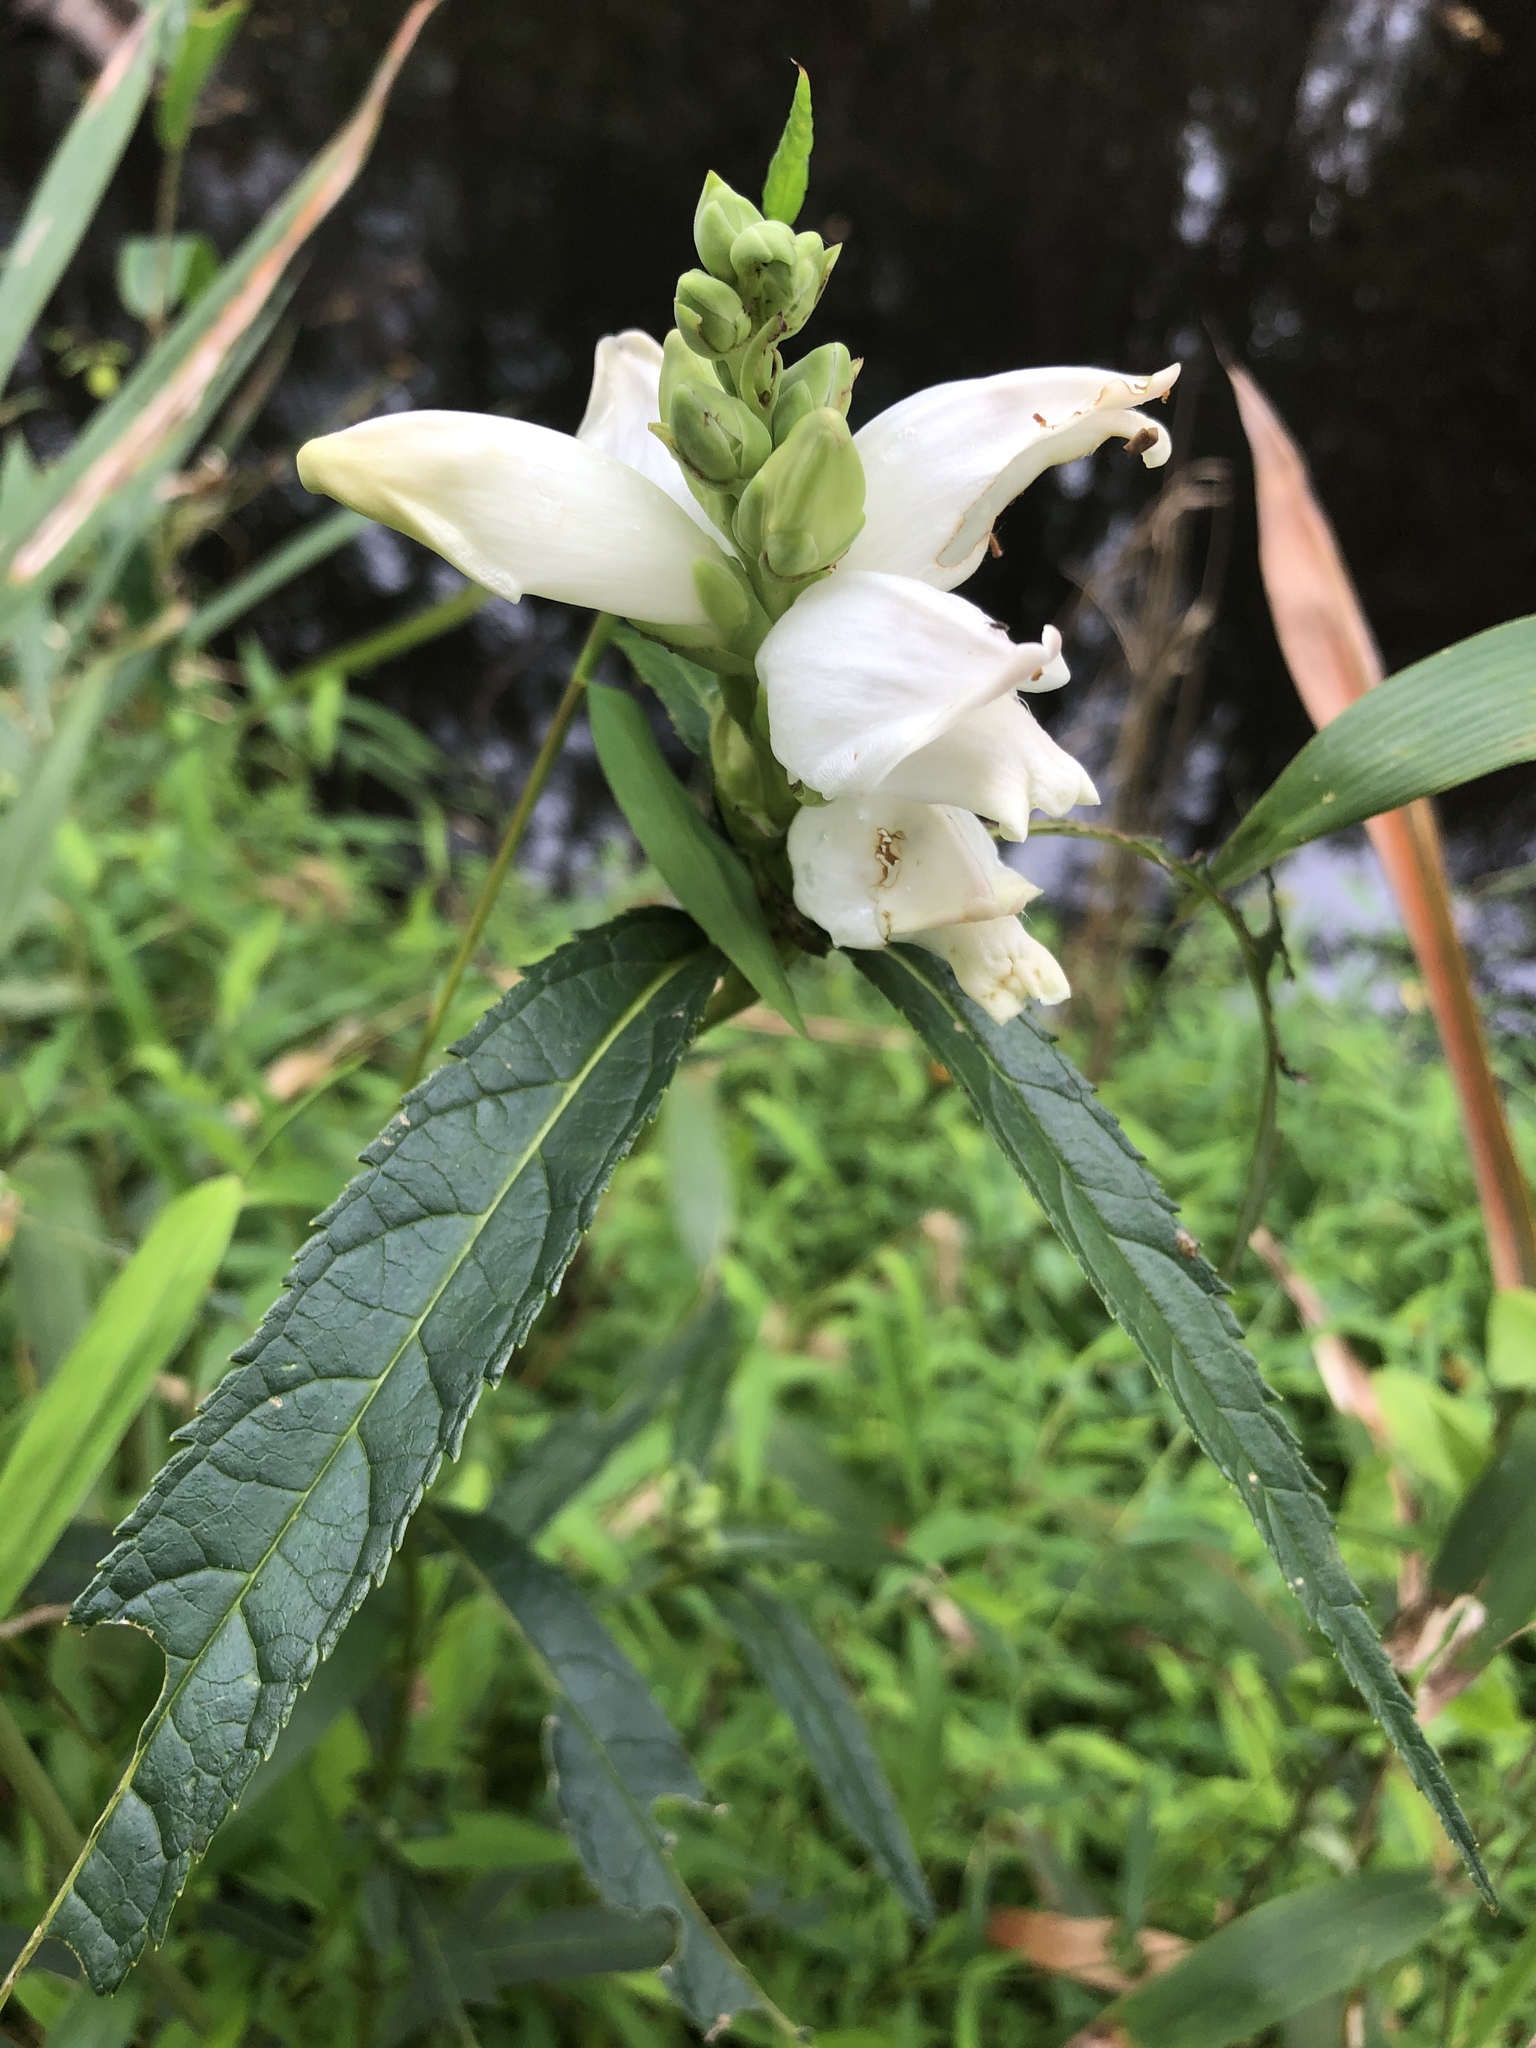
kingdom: Plantae
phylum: Tracheophyta
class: Magnoliopsida
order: Lamiales
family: Plantaginaceae
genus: Chelone
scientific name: Chelone glabra
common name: Snakehead
